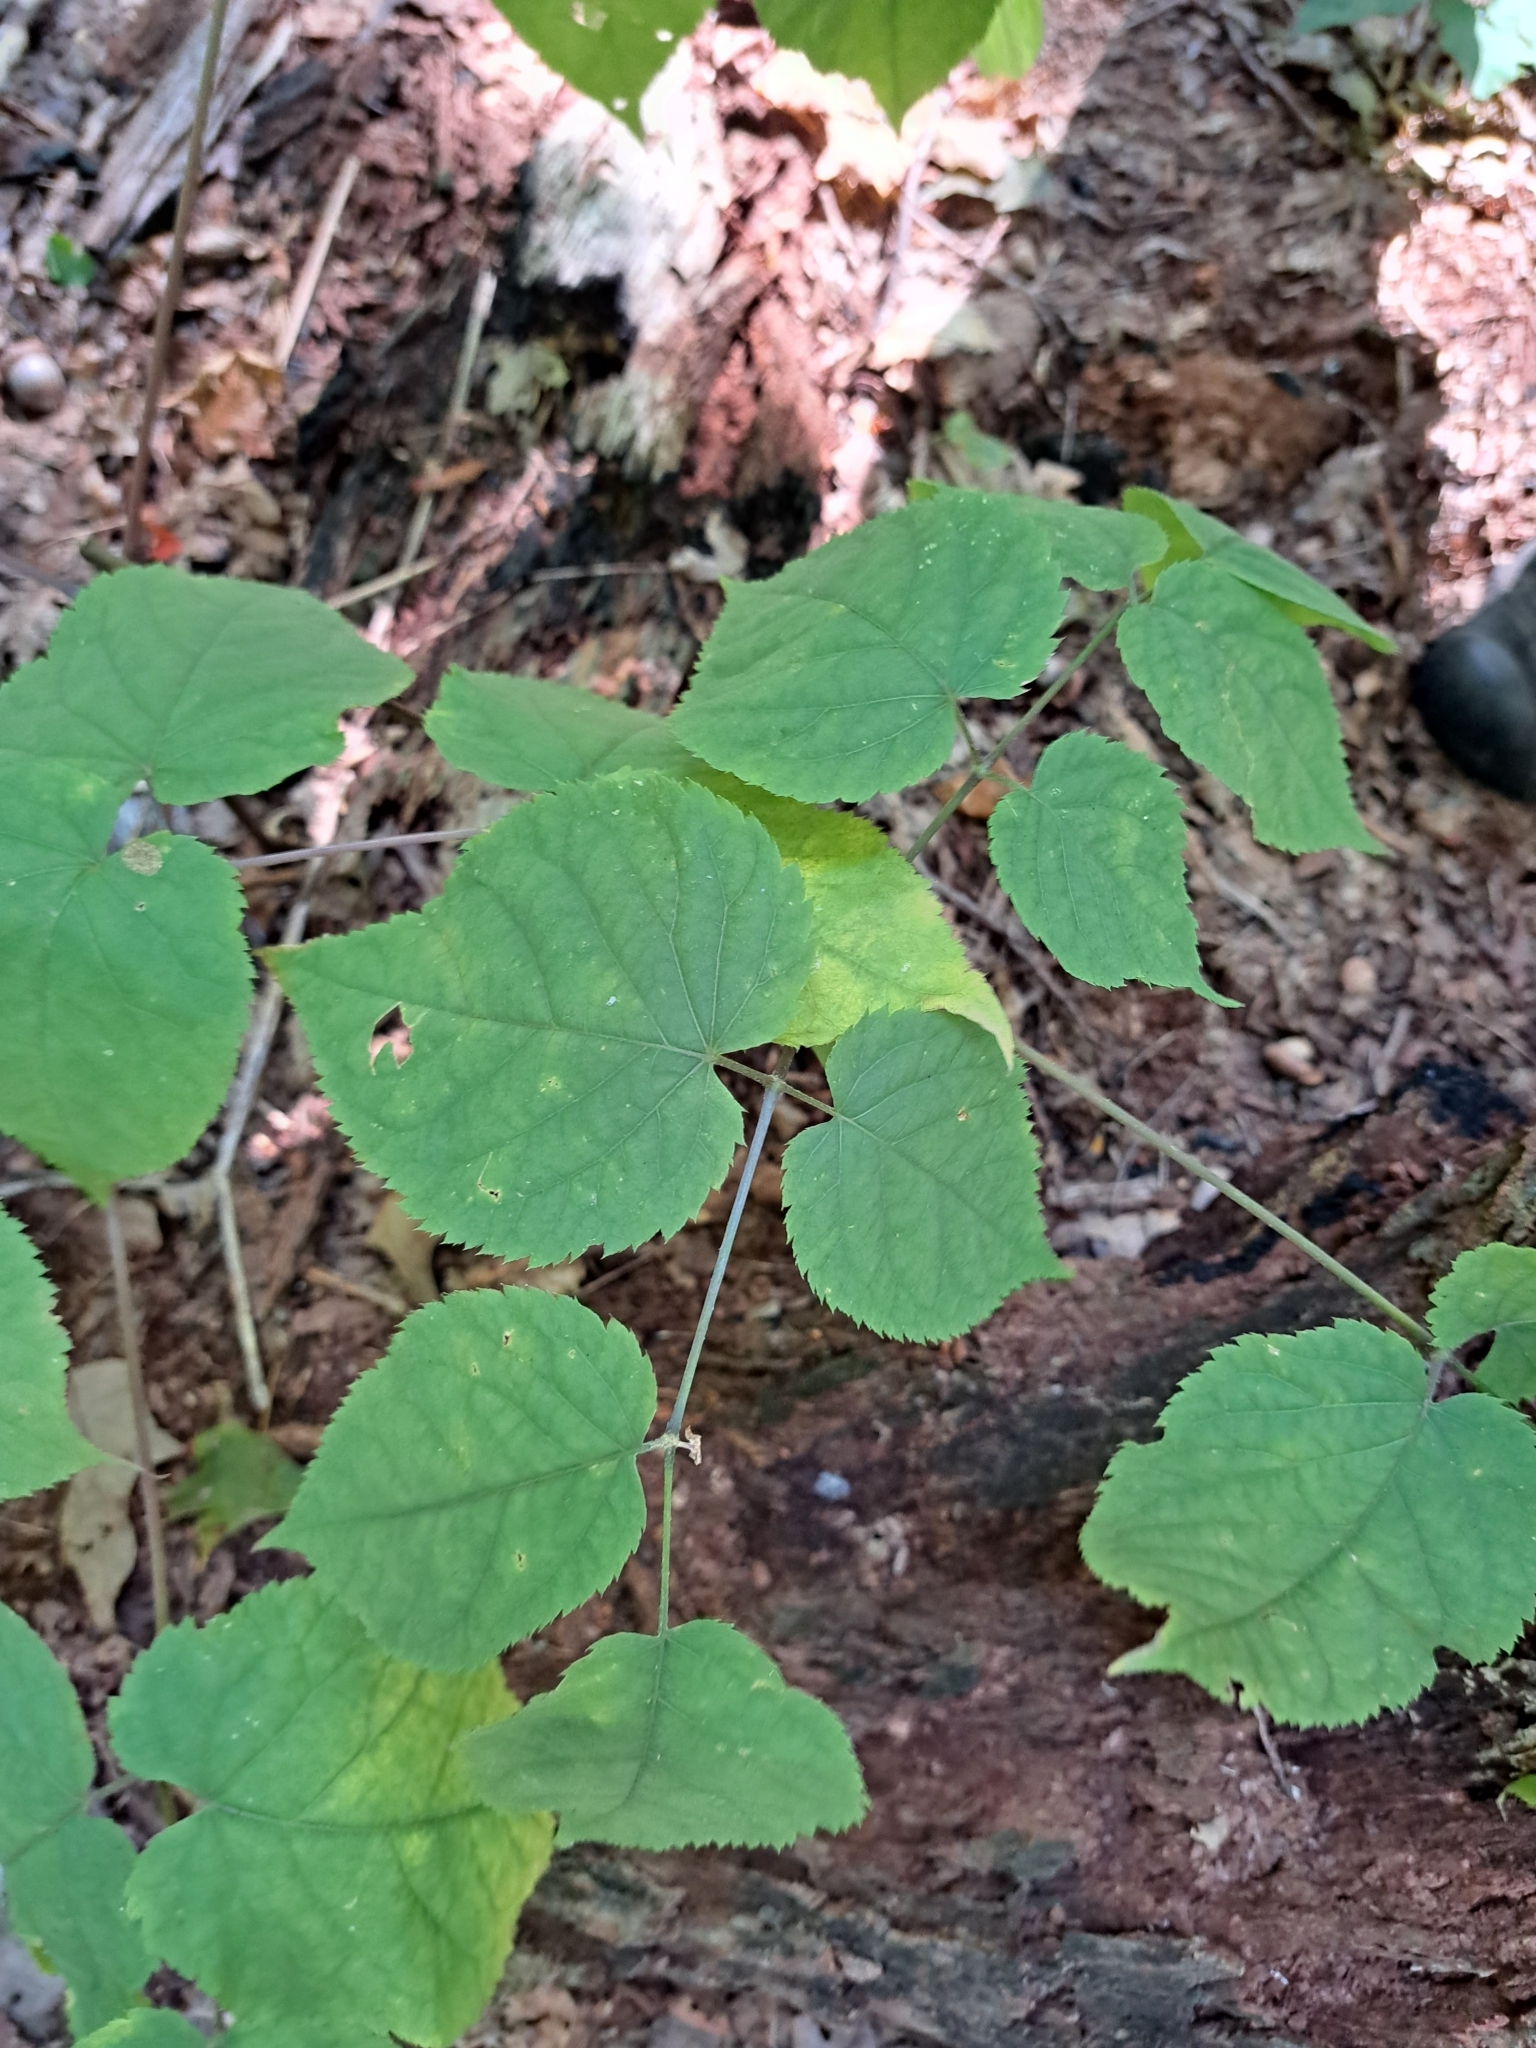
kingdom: Plantae
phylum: Tracheophyta
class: Magnoliopsida
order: Apiales
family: Araliaceae
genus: Aralia
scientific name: Aralia racemosa
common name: American-spikenard
